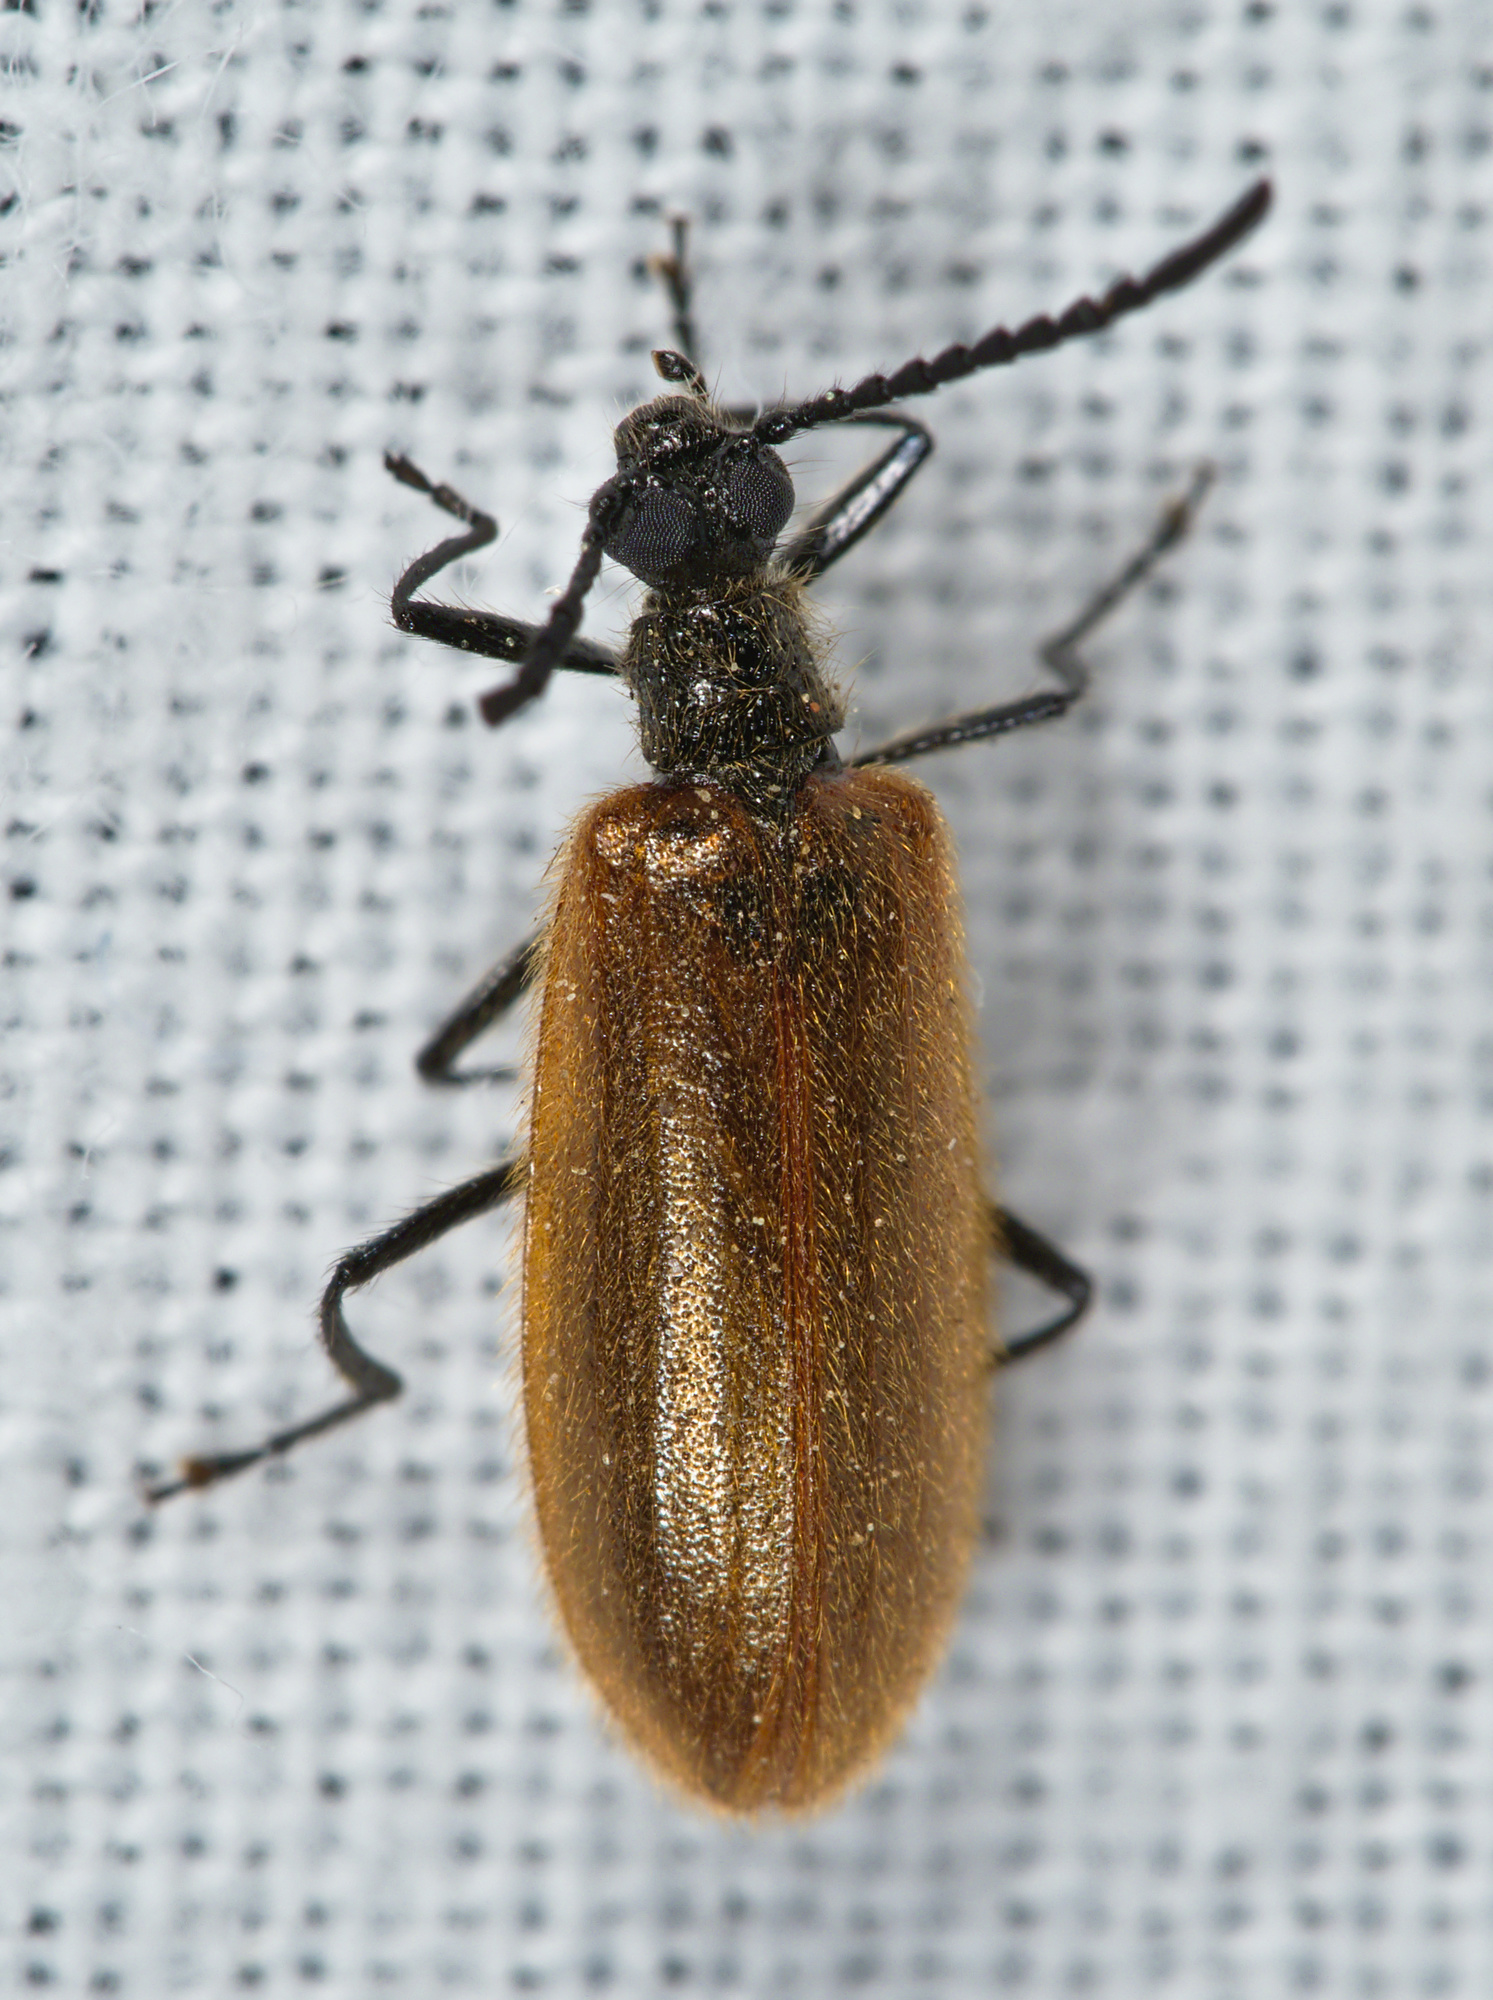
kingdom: Animalia
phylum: Arthropoda
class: Insecta
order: Coleoptera
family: Tenebrionidae
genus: Lagria
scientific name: Lagria atripes
